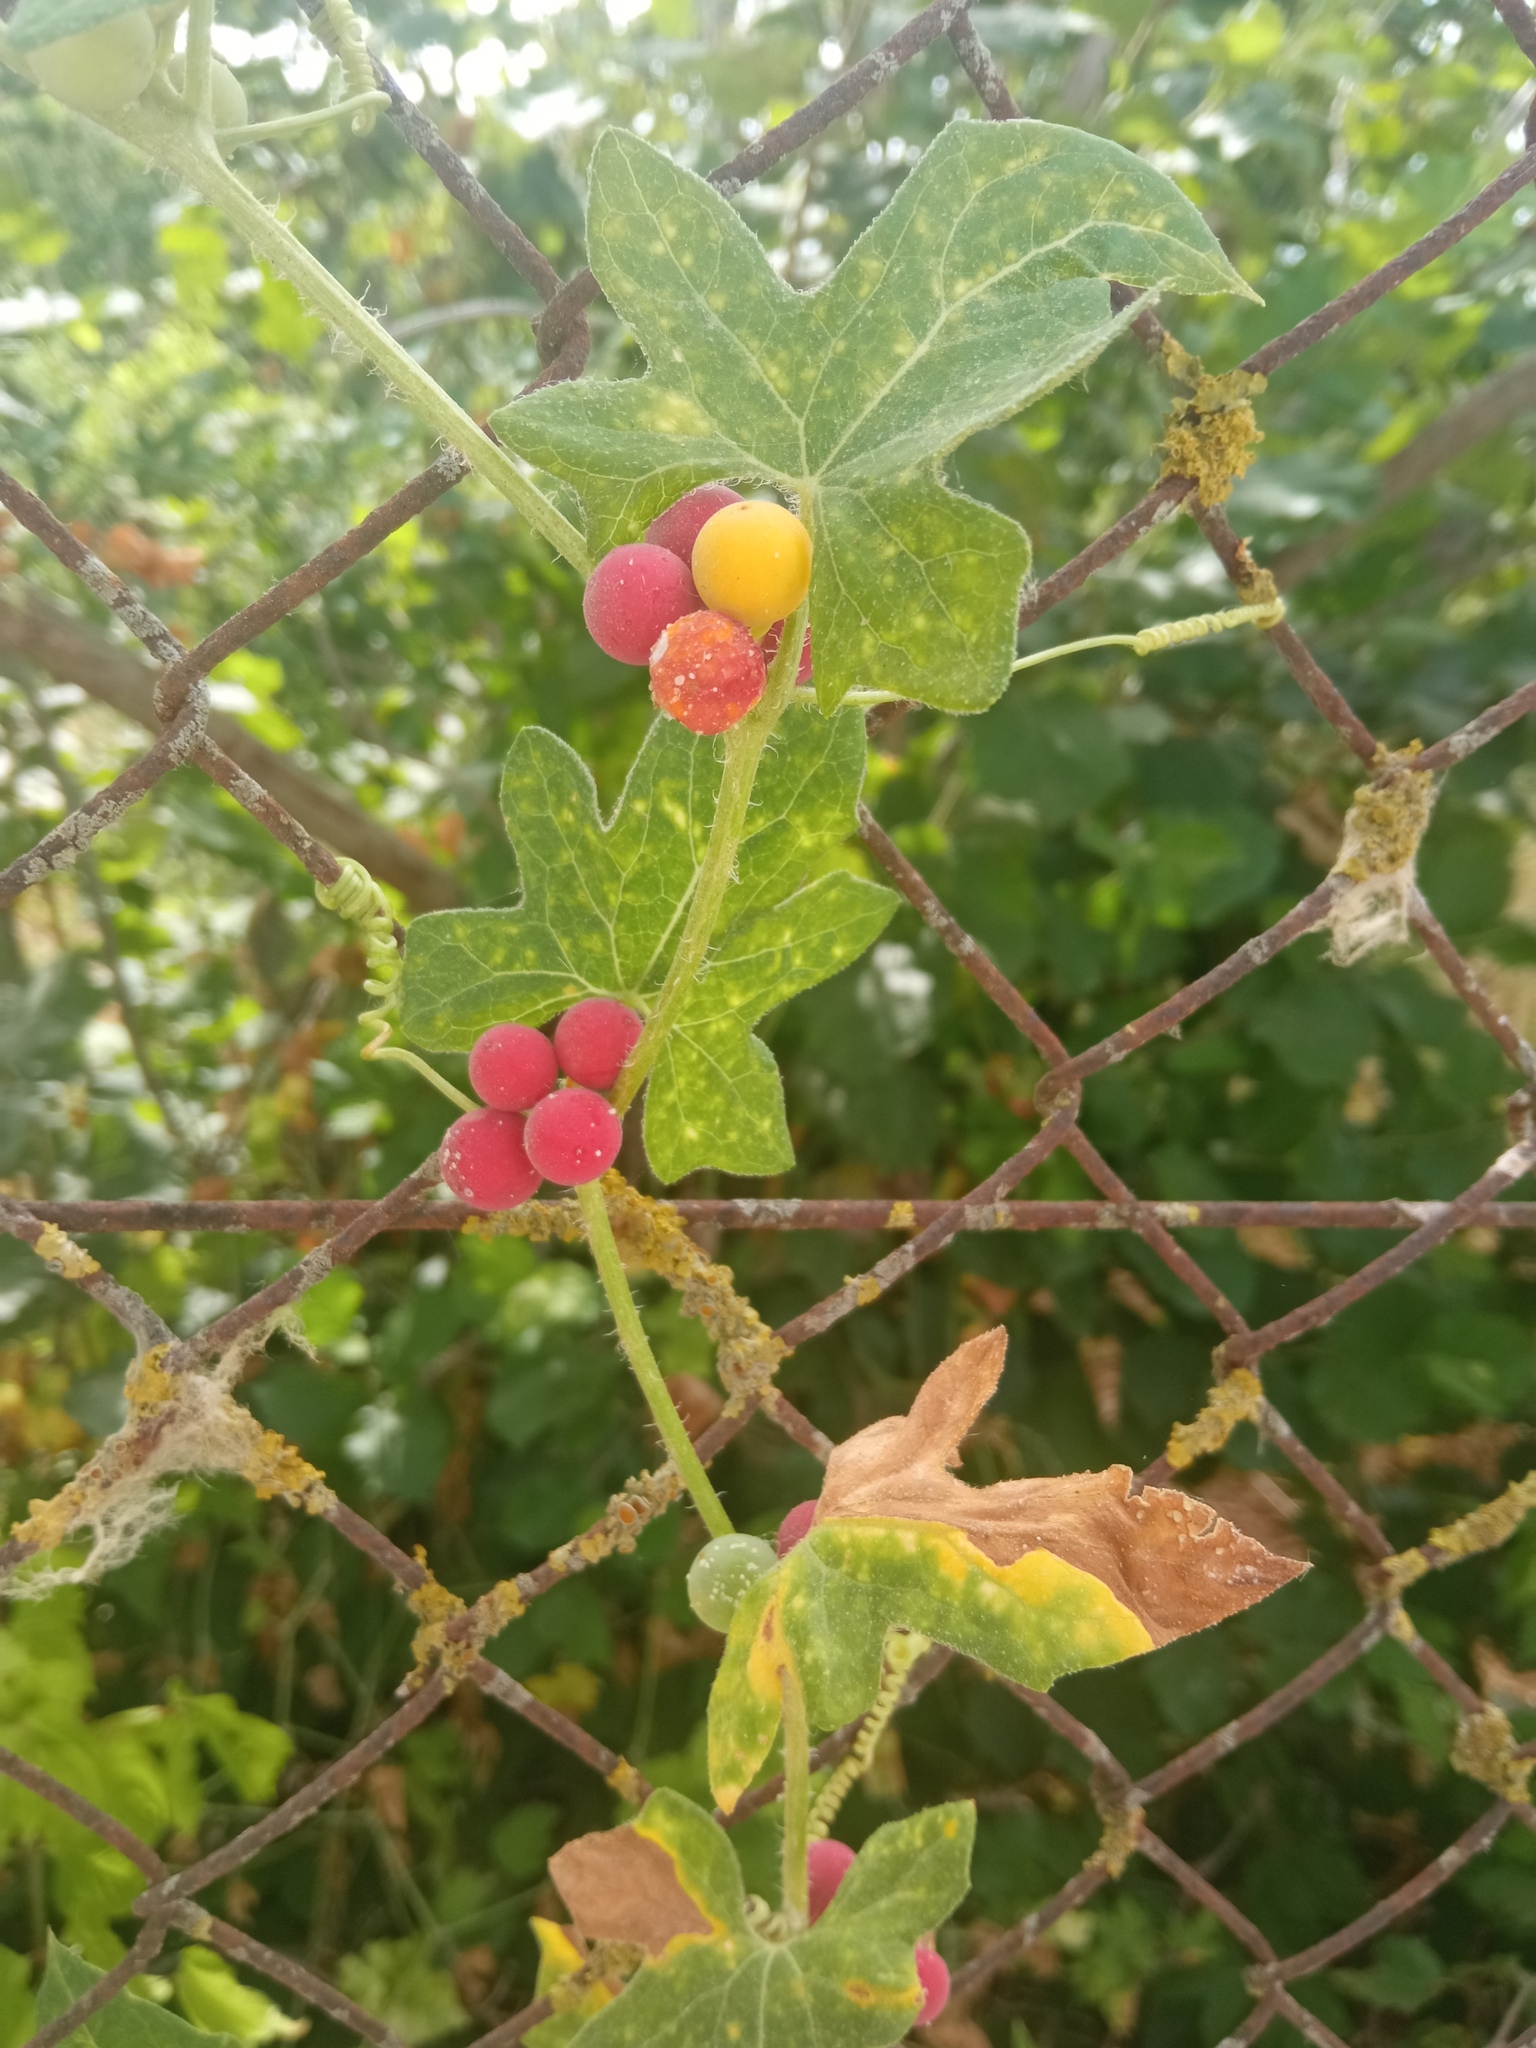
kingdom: Plantae
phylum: Tracheophyta
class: Magnoliopsida
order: Cucurbitales
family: Cucurbitaceae
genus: Bryonia
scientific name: Bryonia cretica
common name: Cretan bryony
